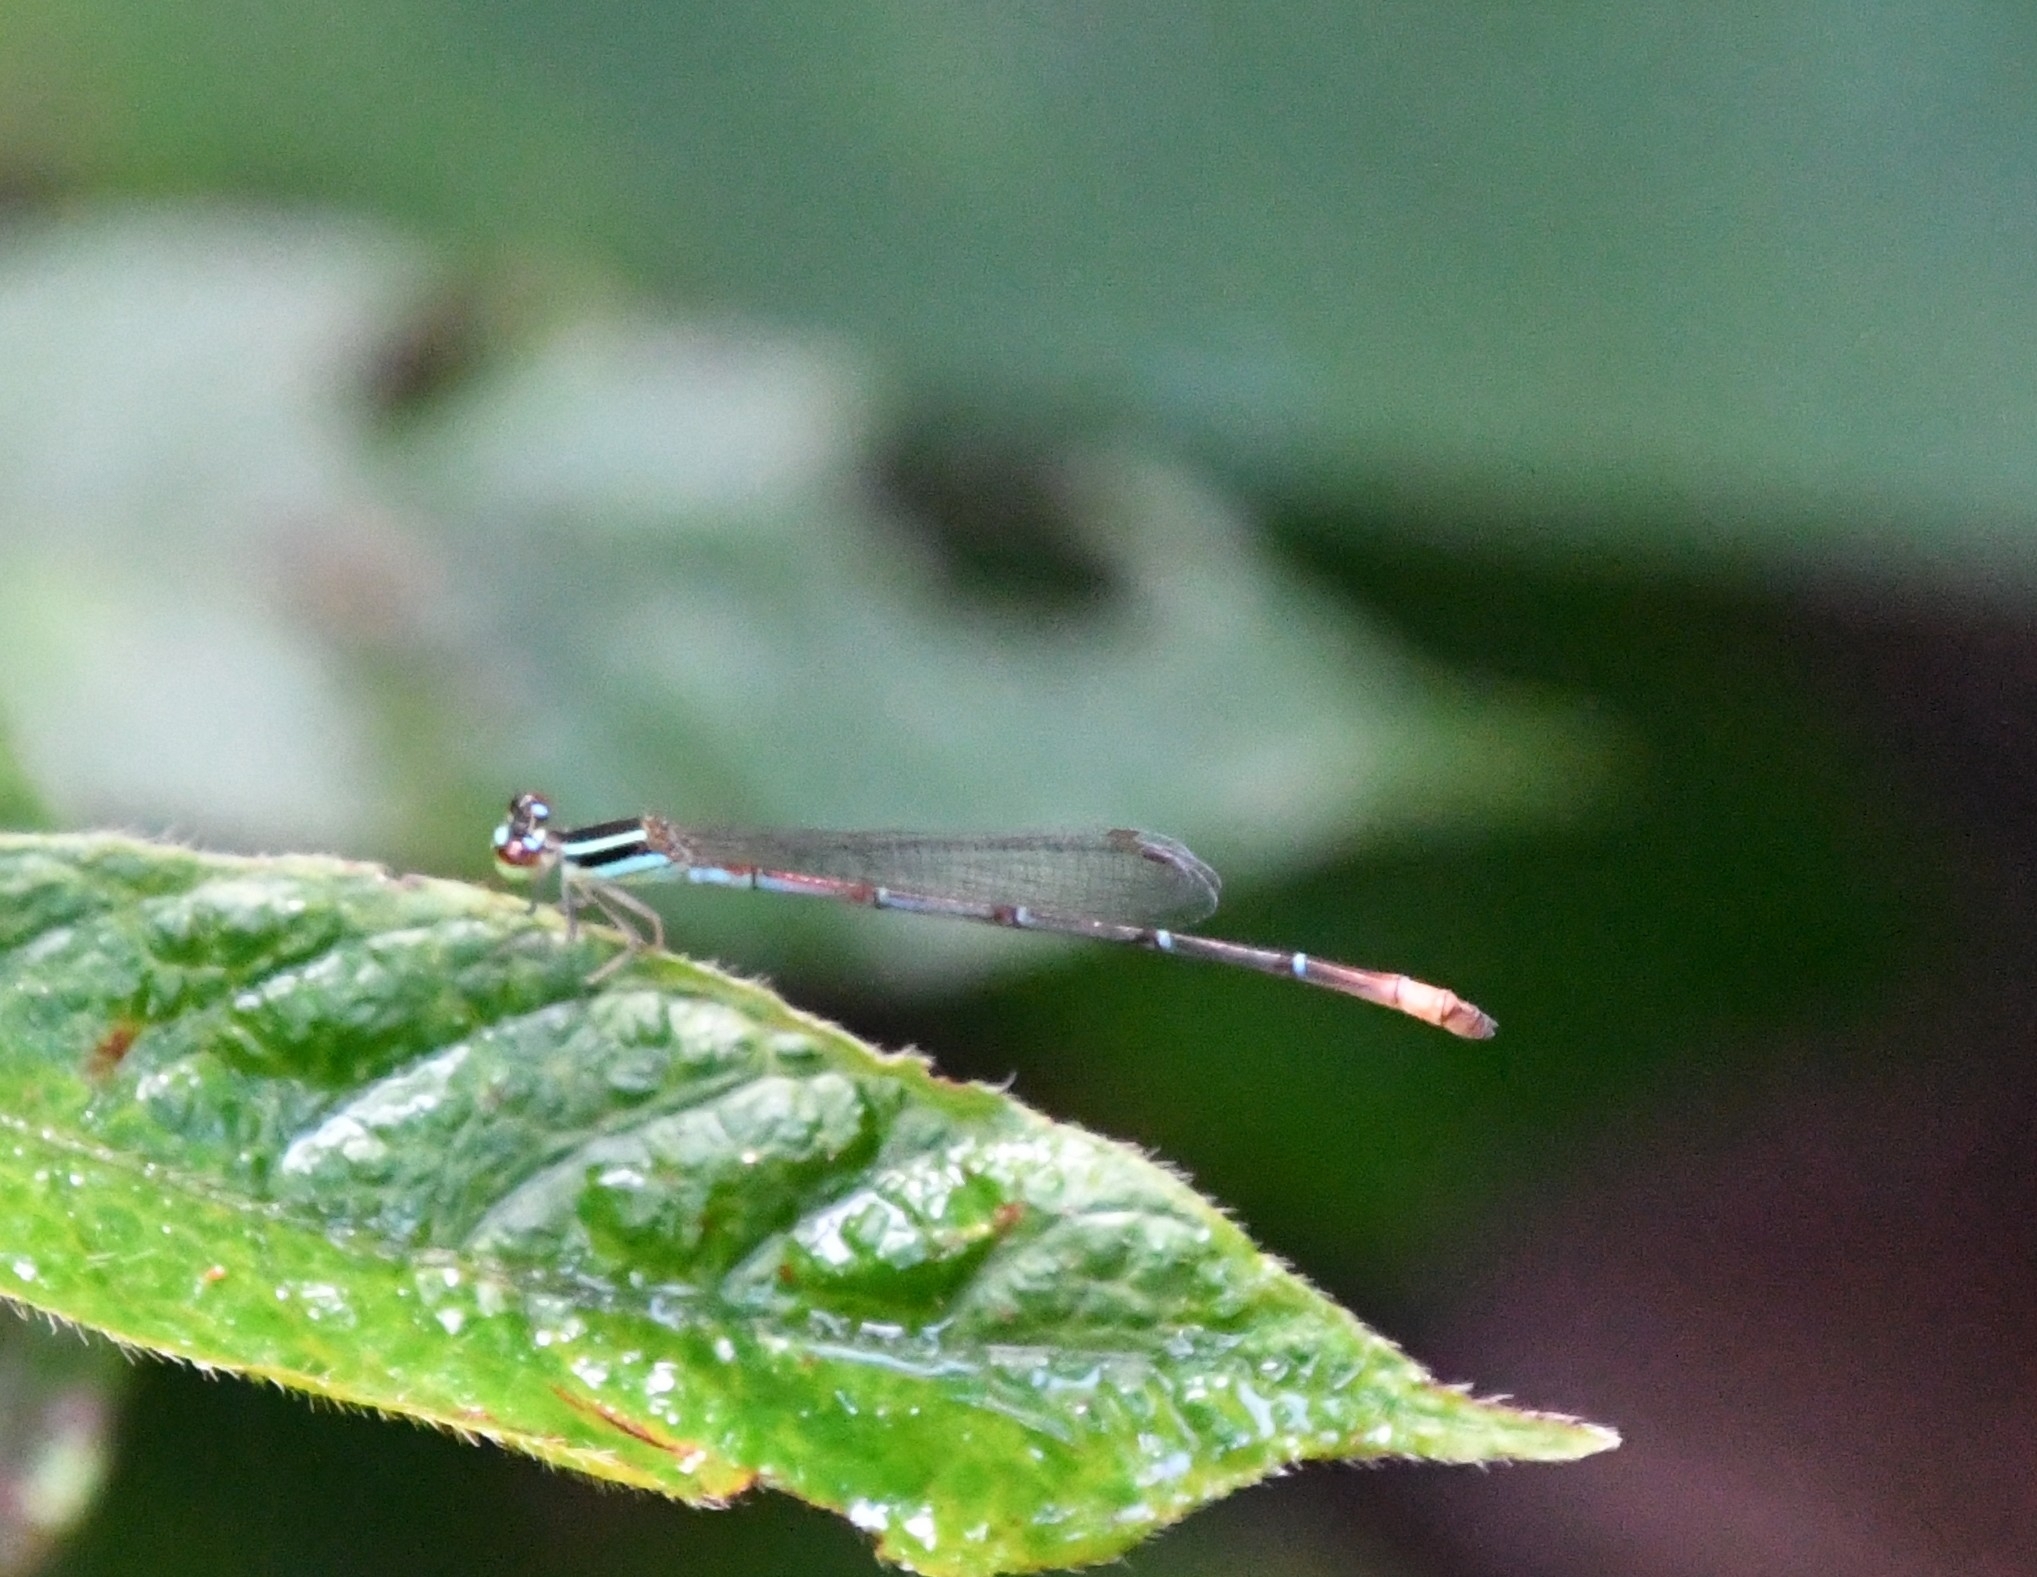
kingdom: Animalia
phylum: Arthropoda
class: Insecta
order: Odonata
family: Coenagrionidae
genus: Argiocnemis
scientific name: Argiocnemis rubescens
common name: Red-tipped shadefly
